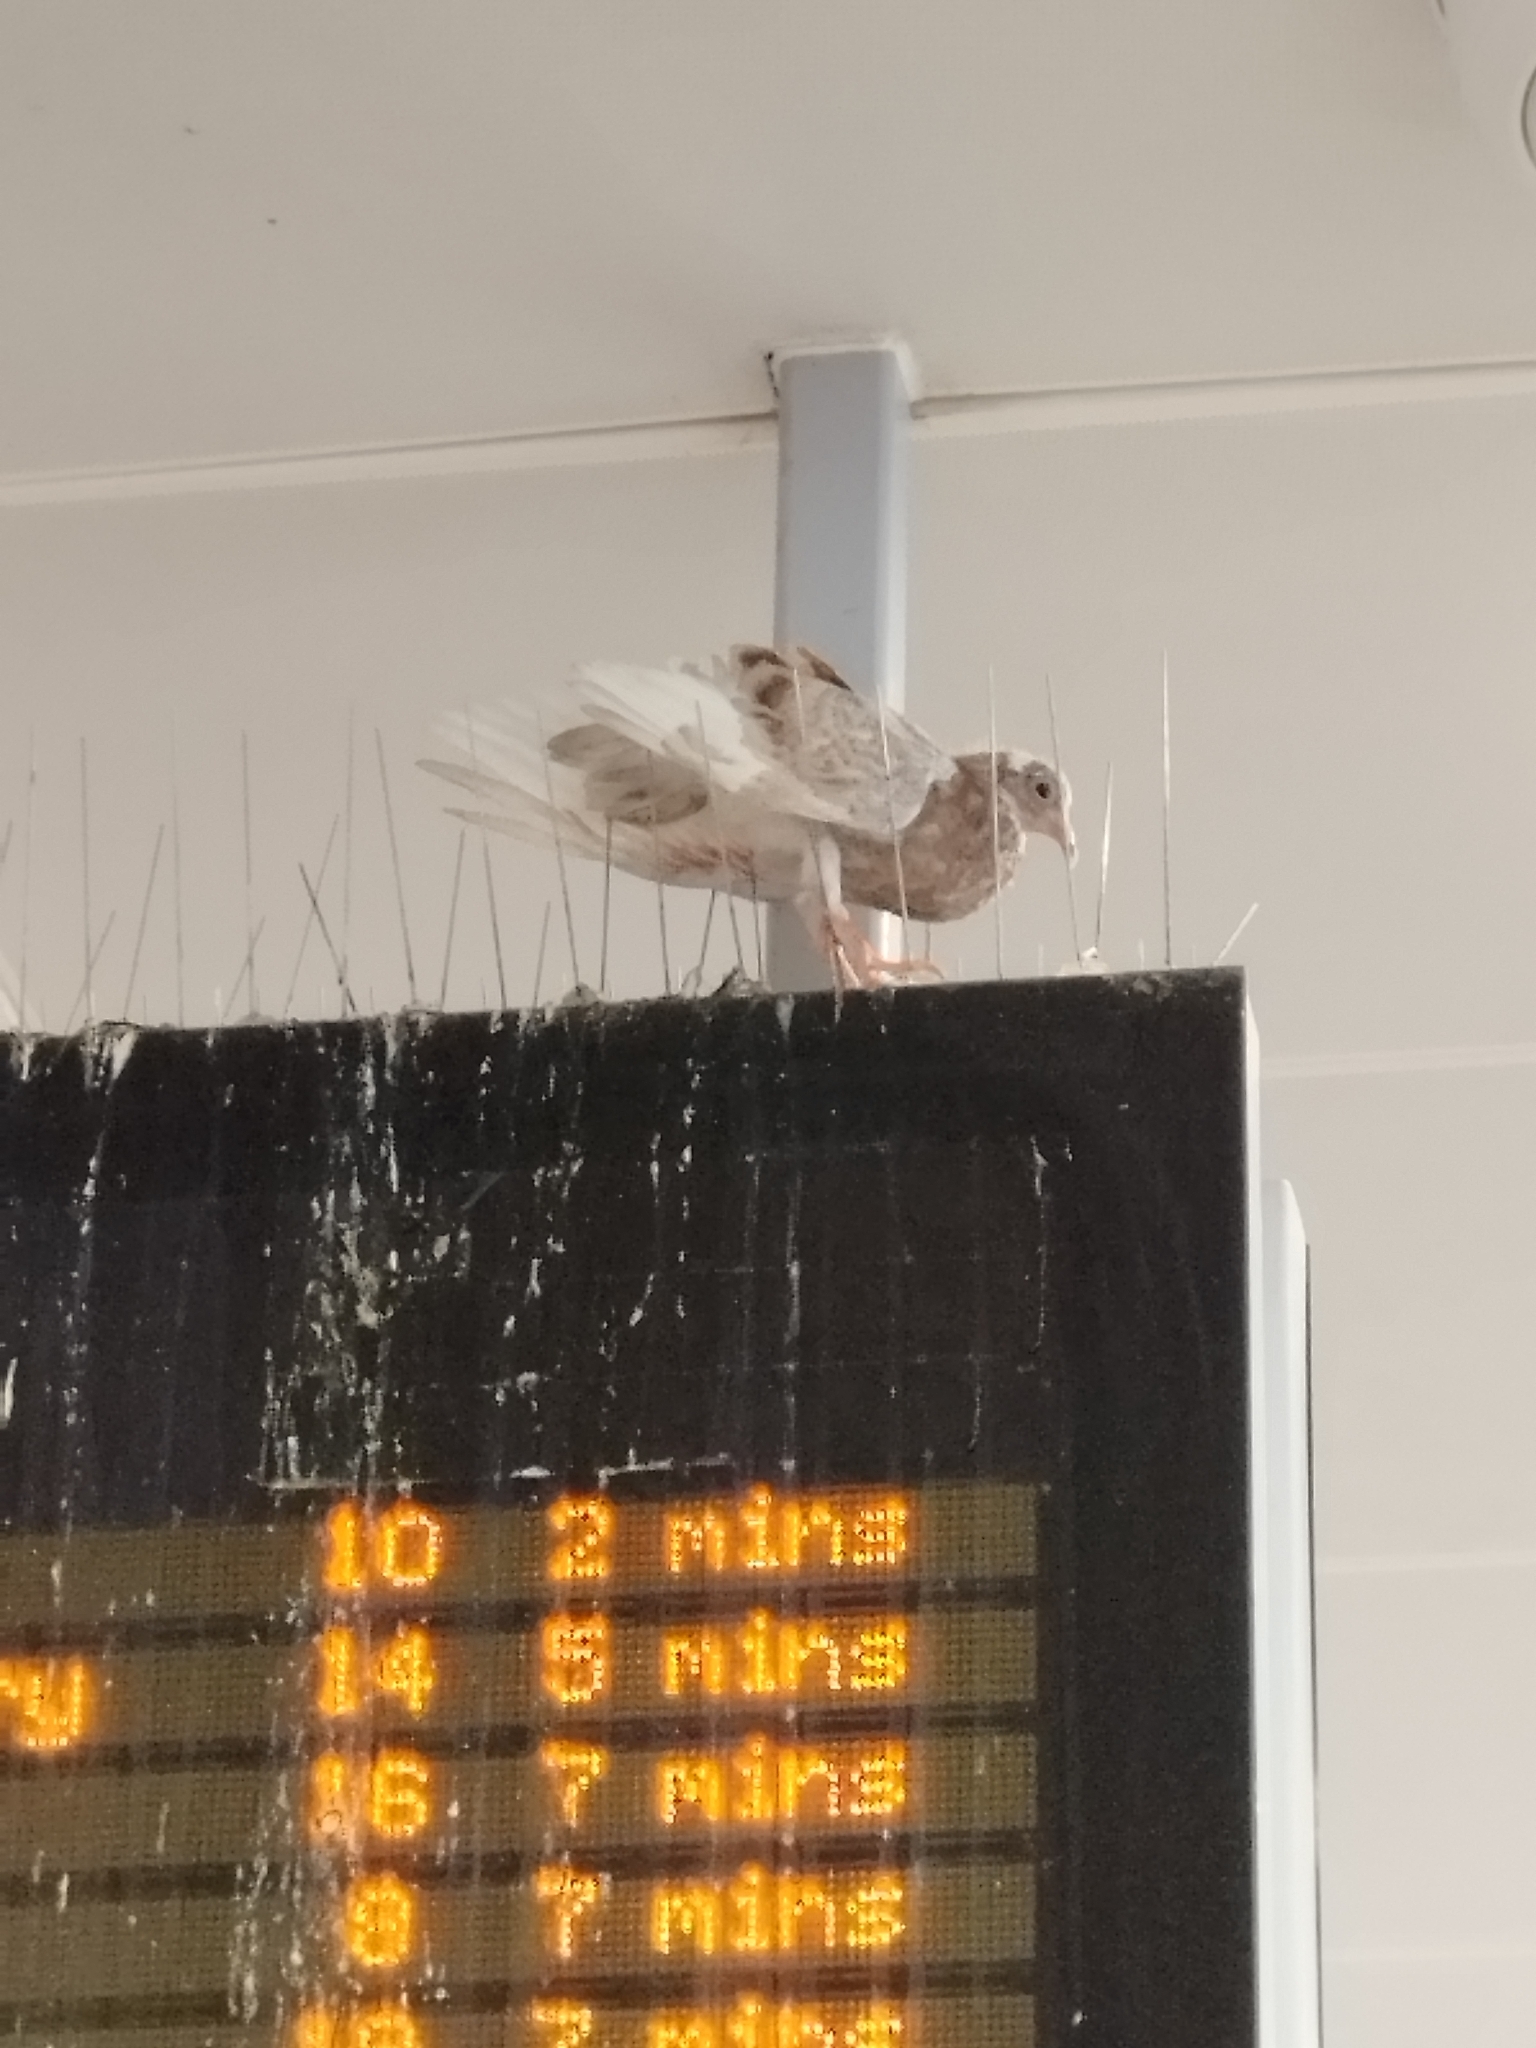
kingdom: Animalia
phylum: Chordata
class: Aves
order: Columbiformes
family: Columbidae
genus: Columba
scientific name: Columba livia
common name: Rock pigeon
